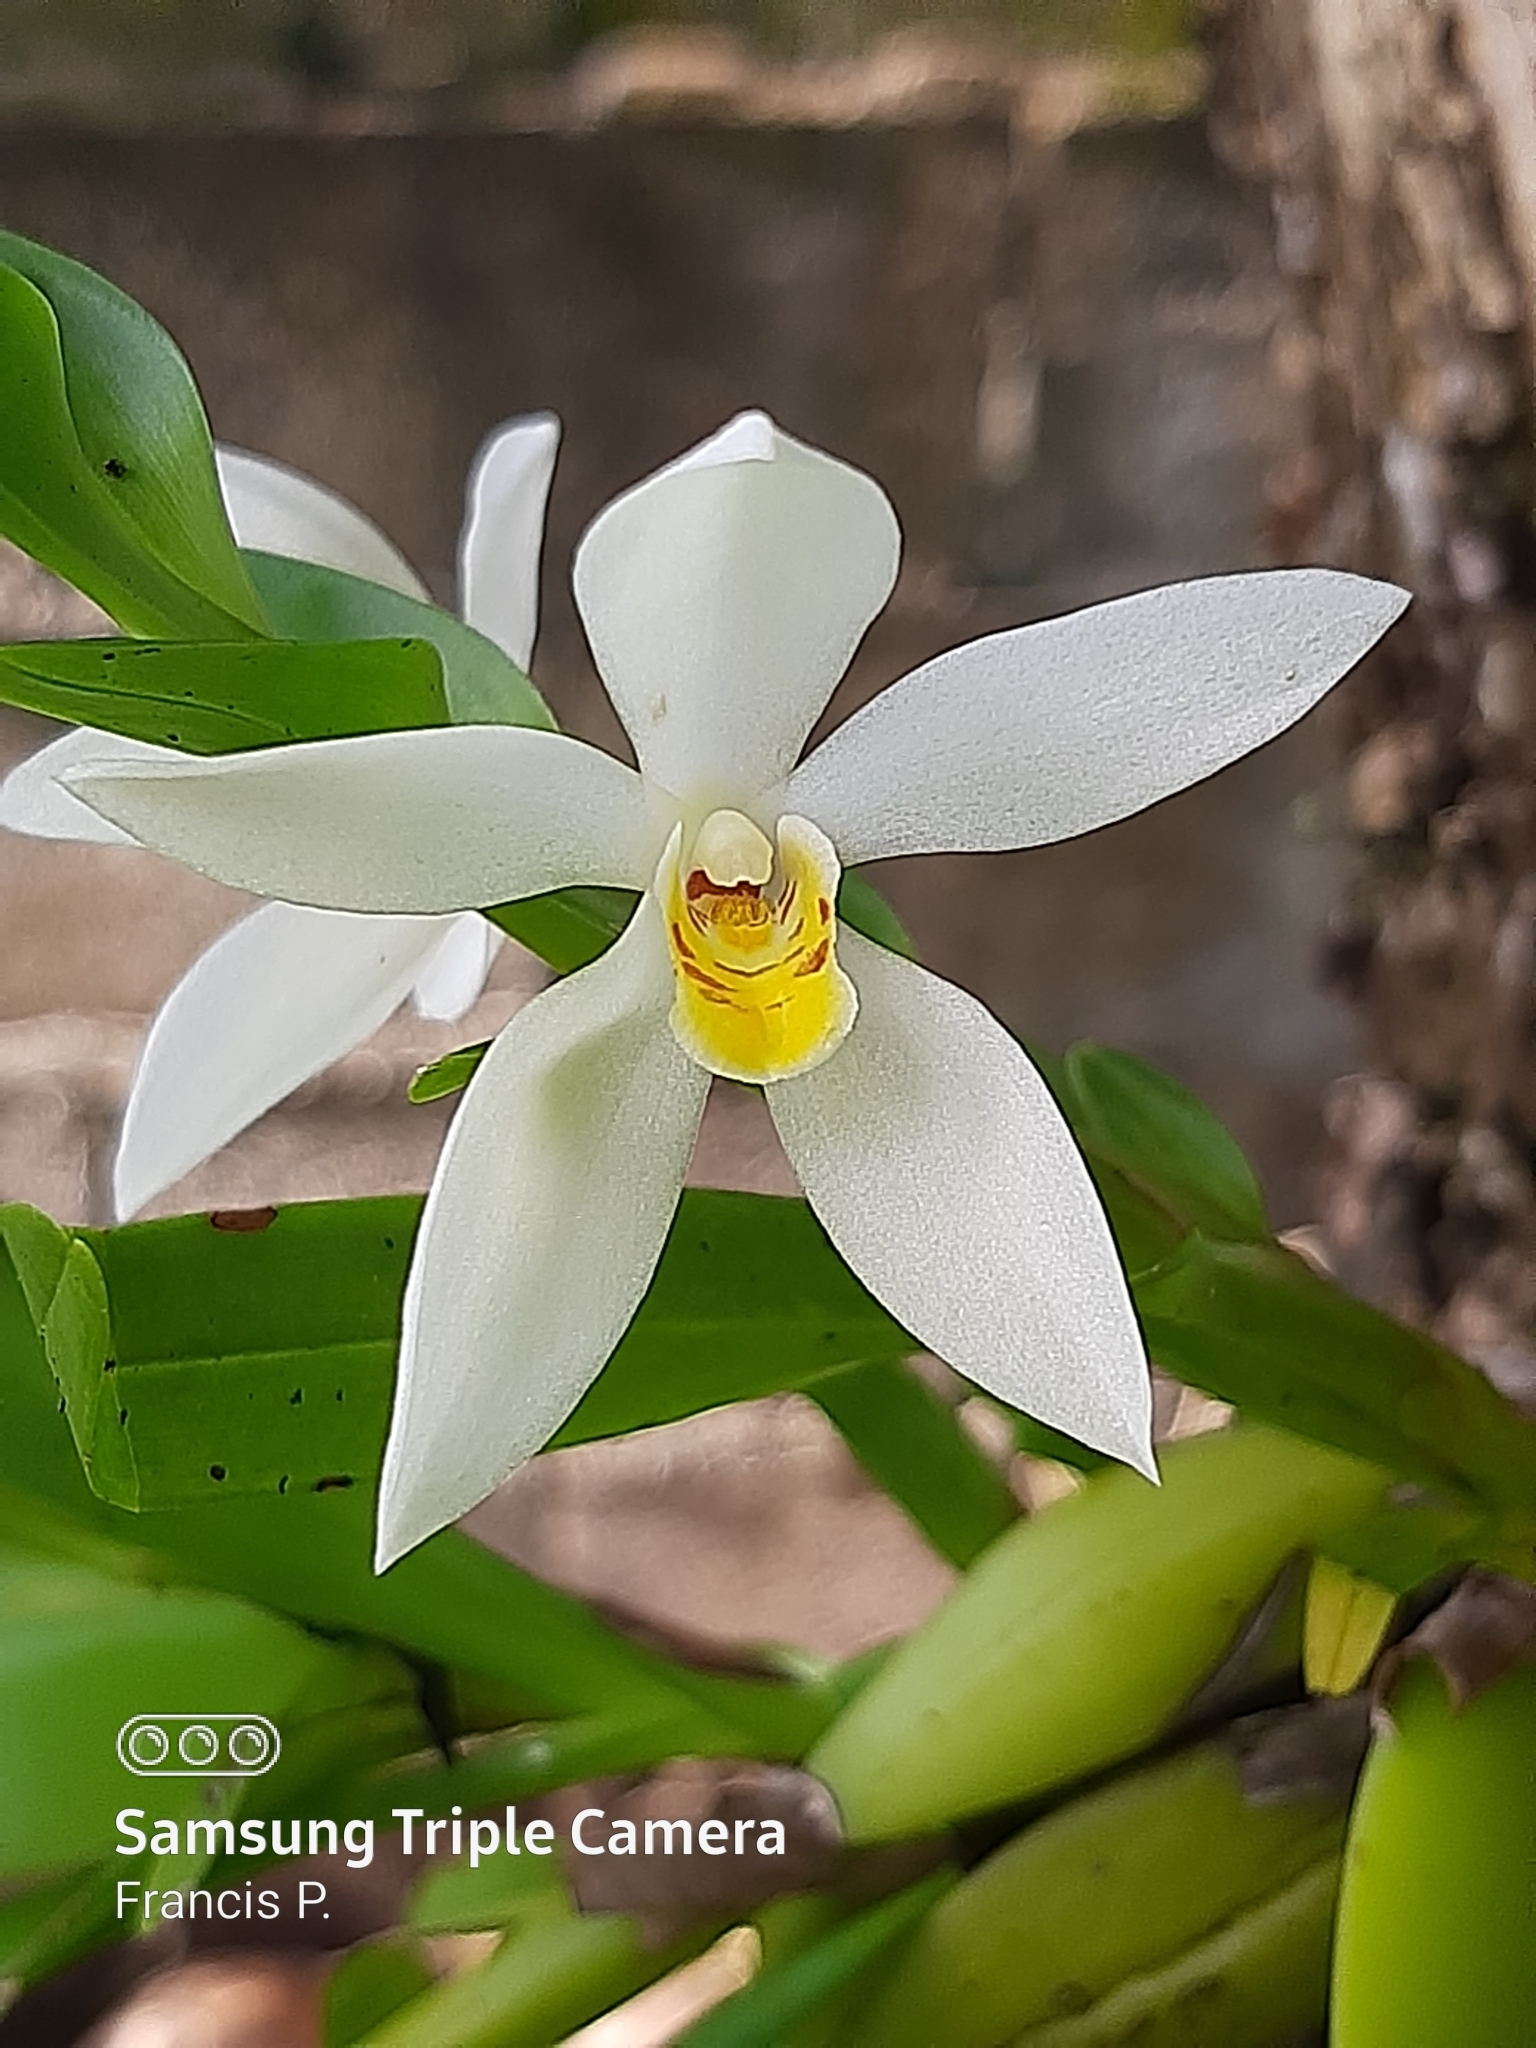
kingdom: Plantae
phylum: Tracheophyta
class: Liliopsida
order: Asparagales
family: Orchidaceae
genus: Maxillaria
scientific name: Maxillaria lutescens
